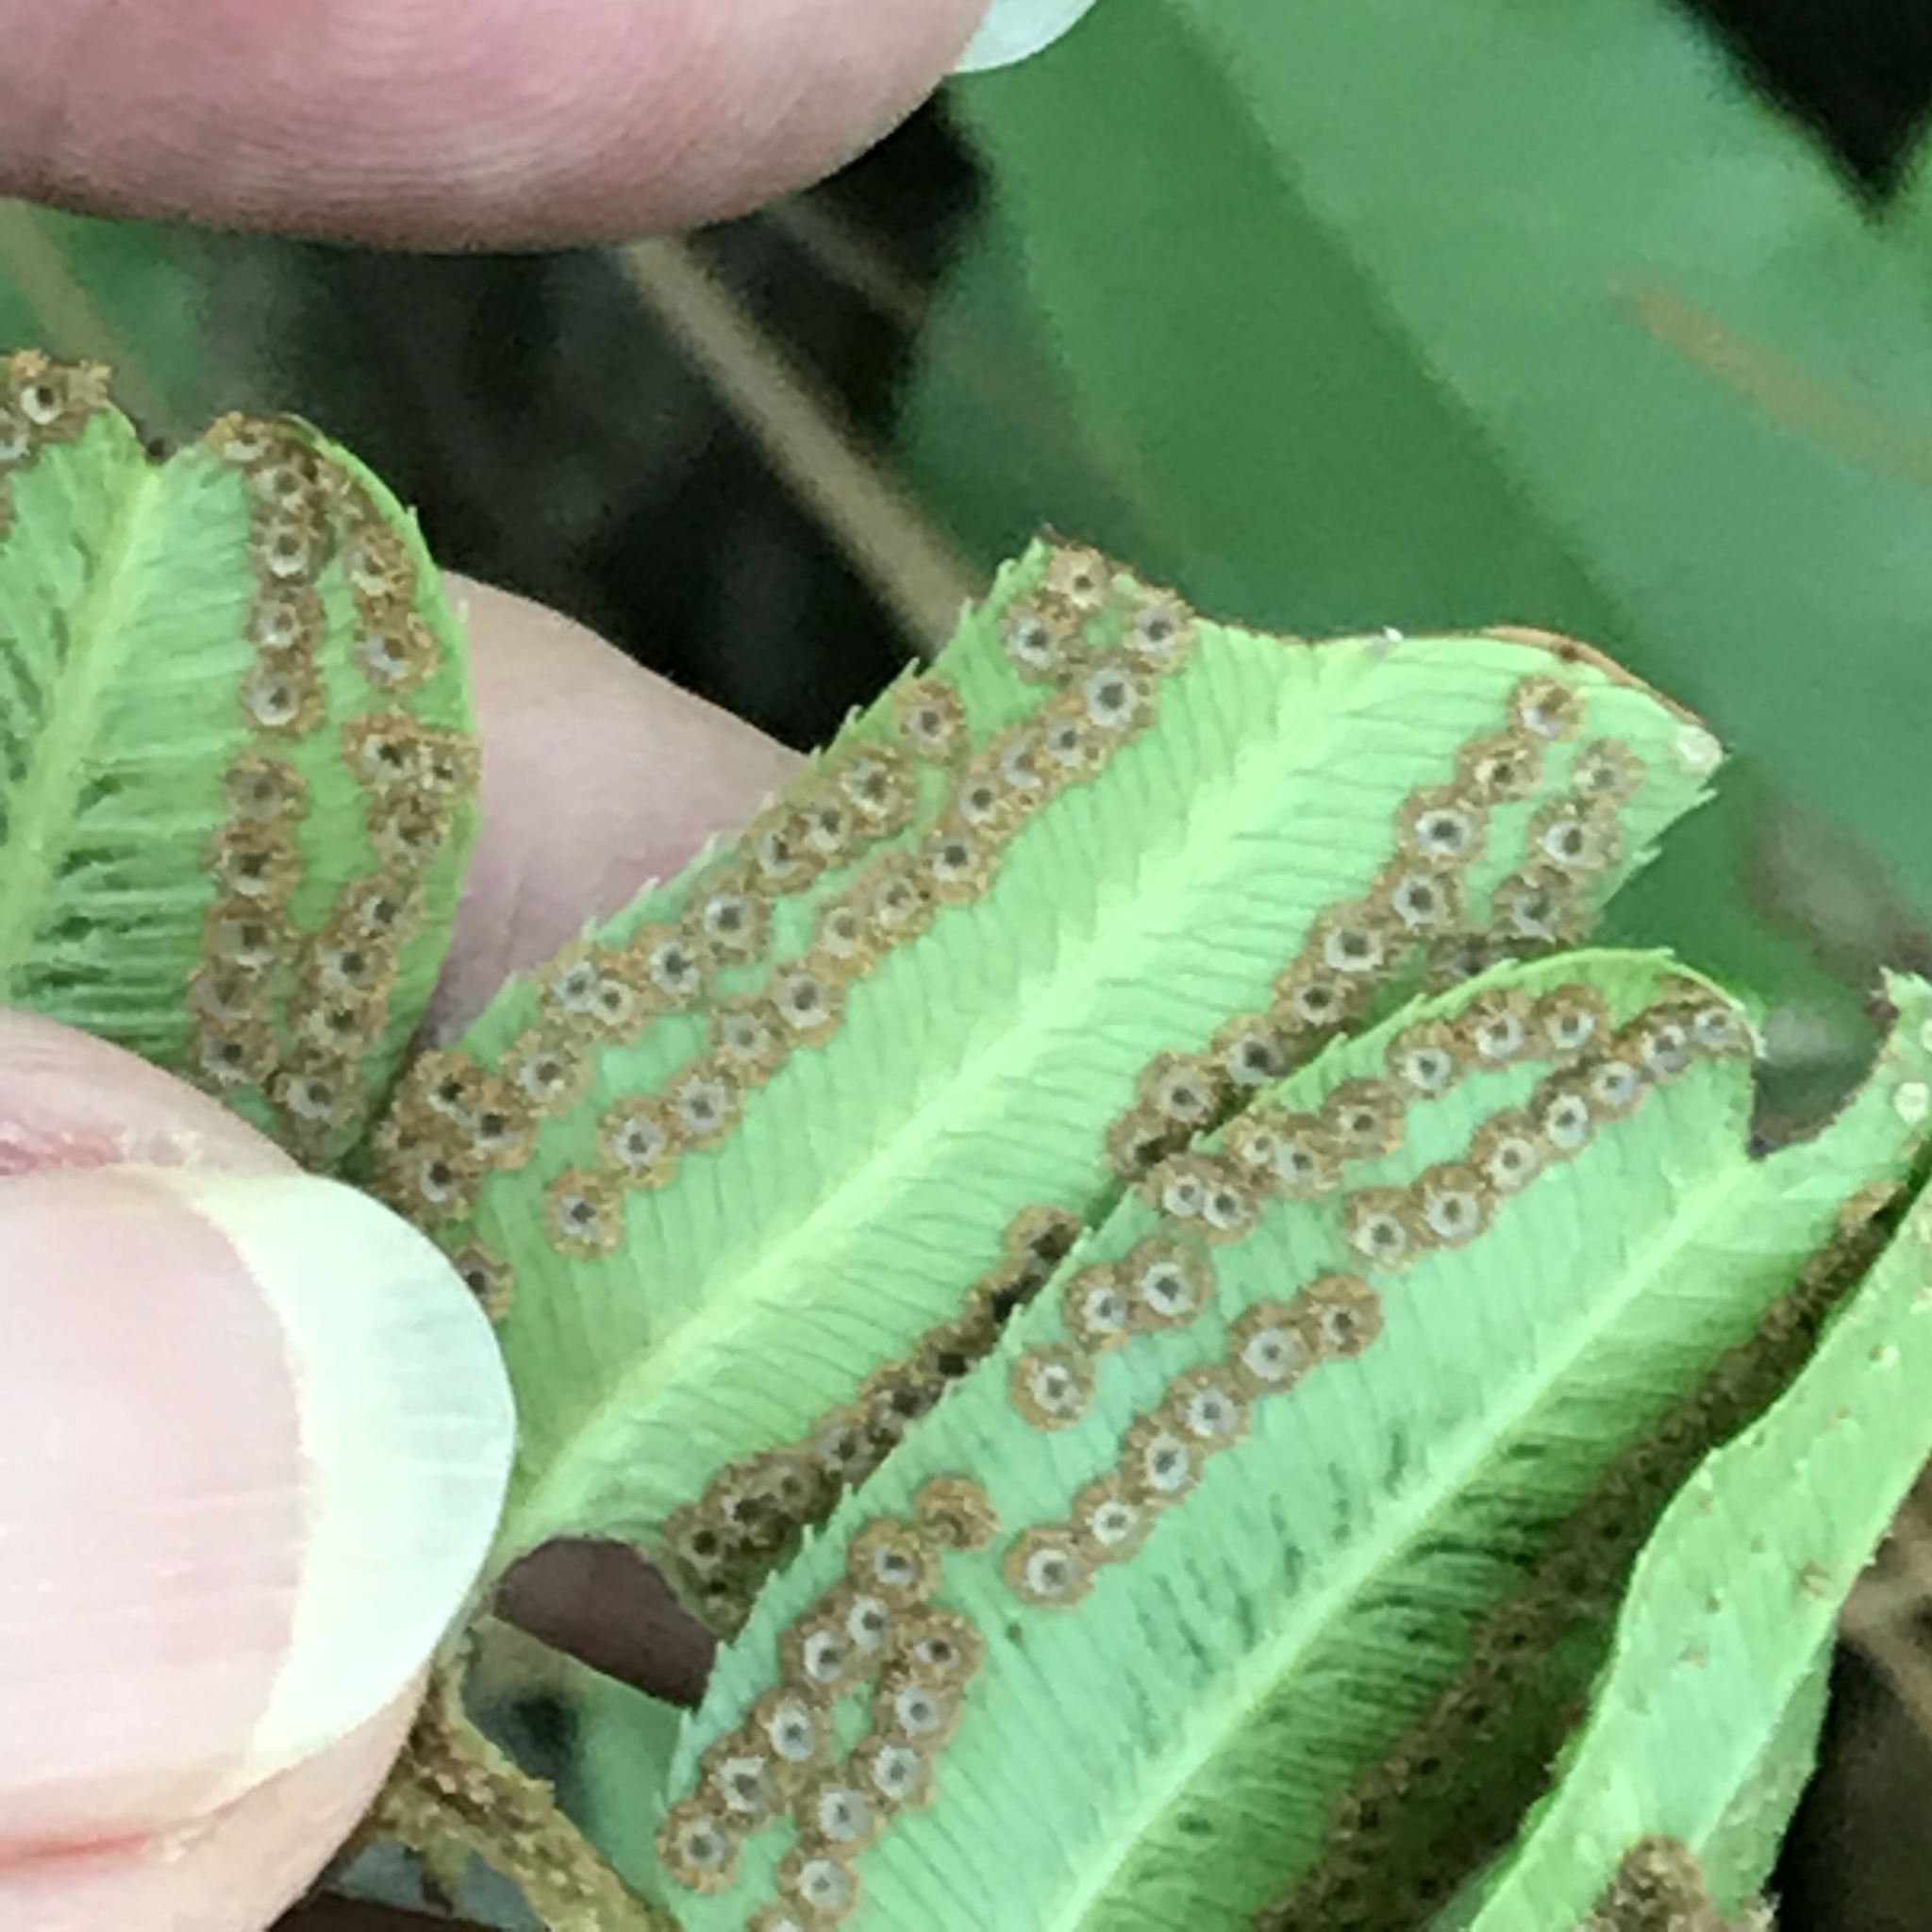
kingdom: Plantae
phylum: Tracheophyta
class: Polypodiopsida
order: Polypodiales
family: Dryopteridaceae
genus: Phanerophlebia
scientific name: Phanerophlebia umbonata
